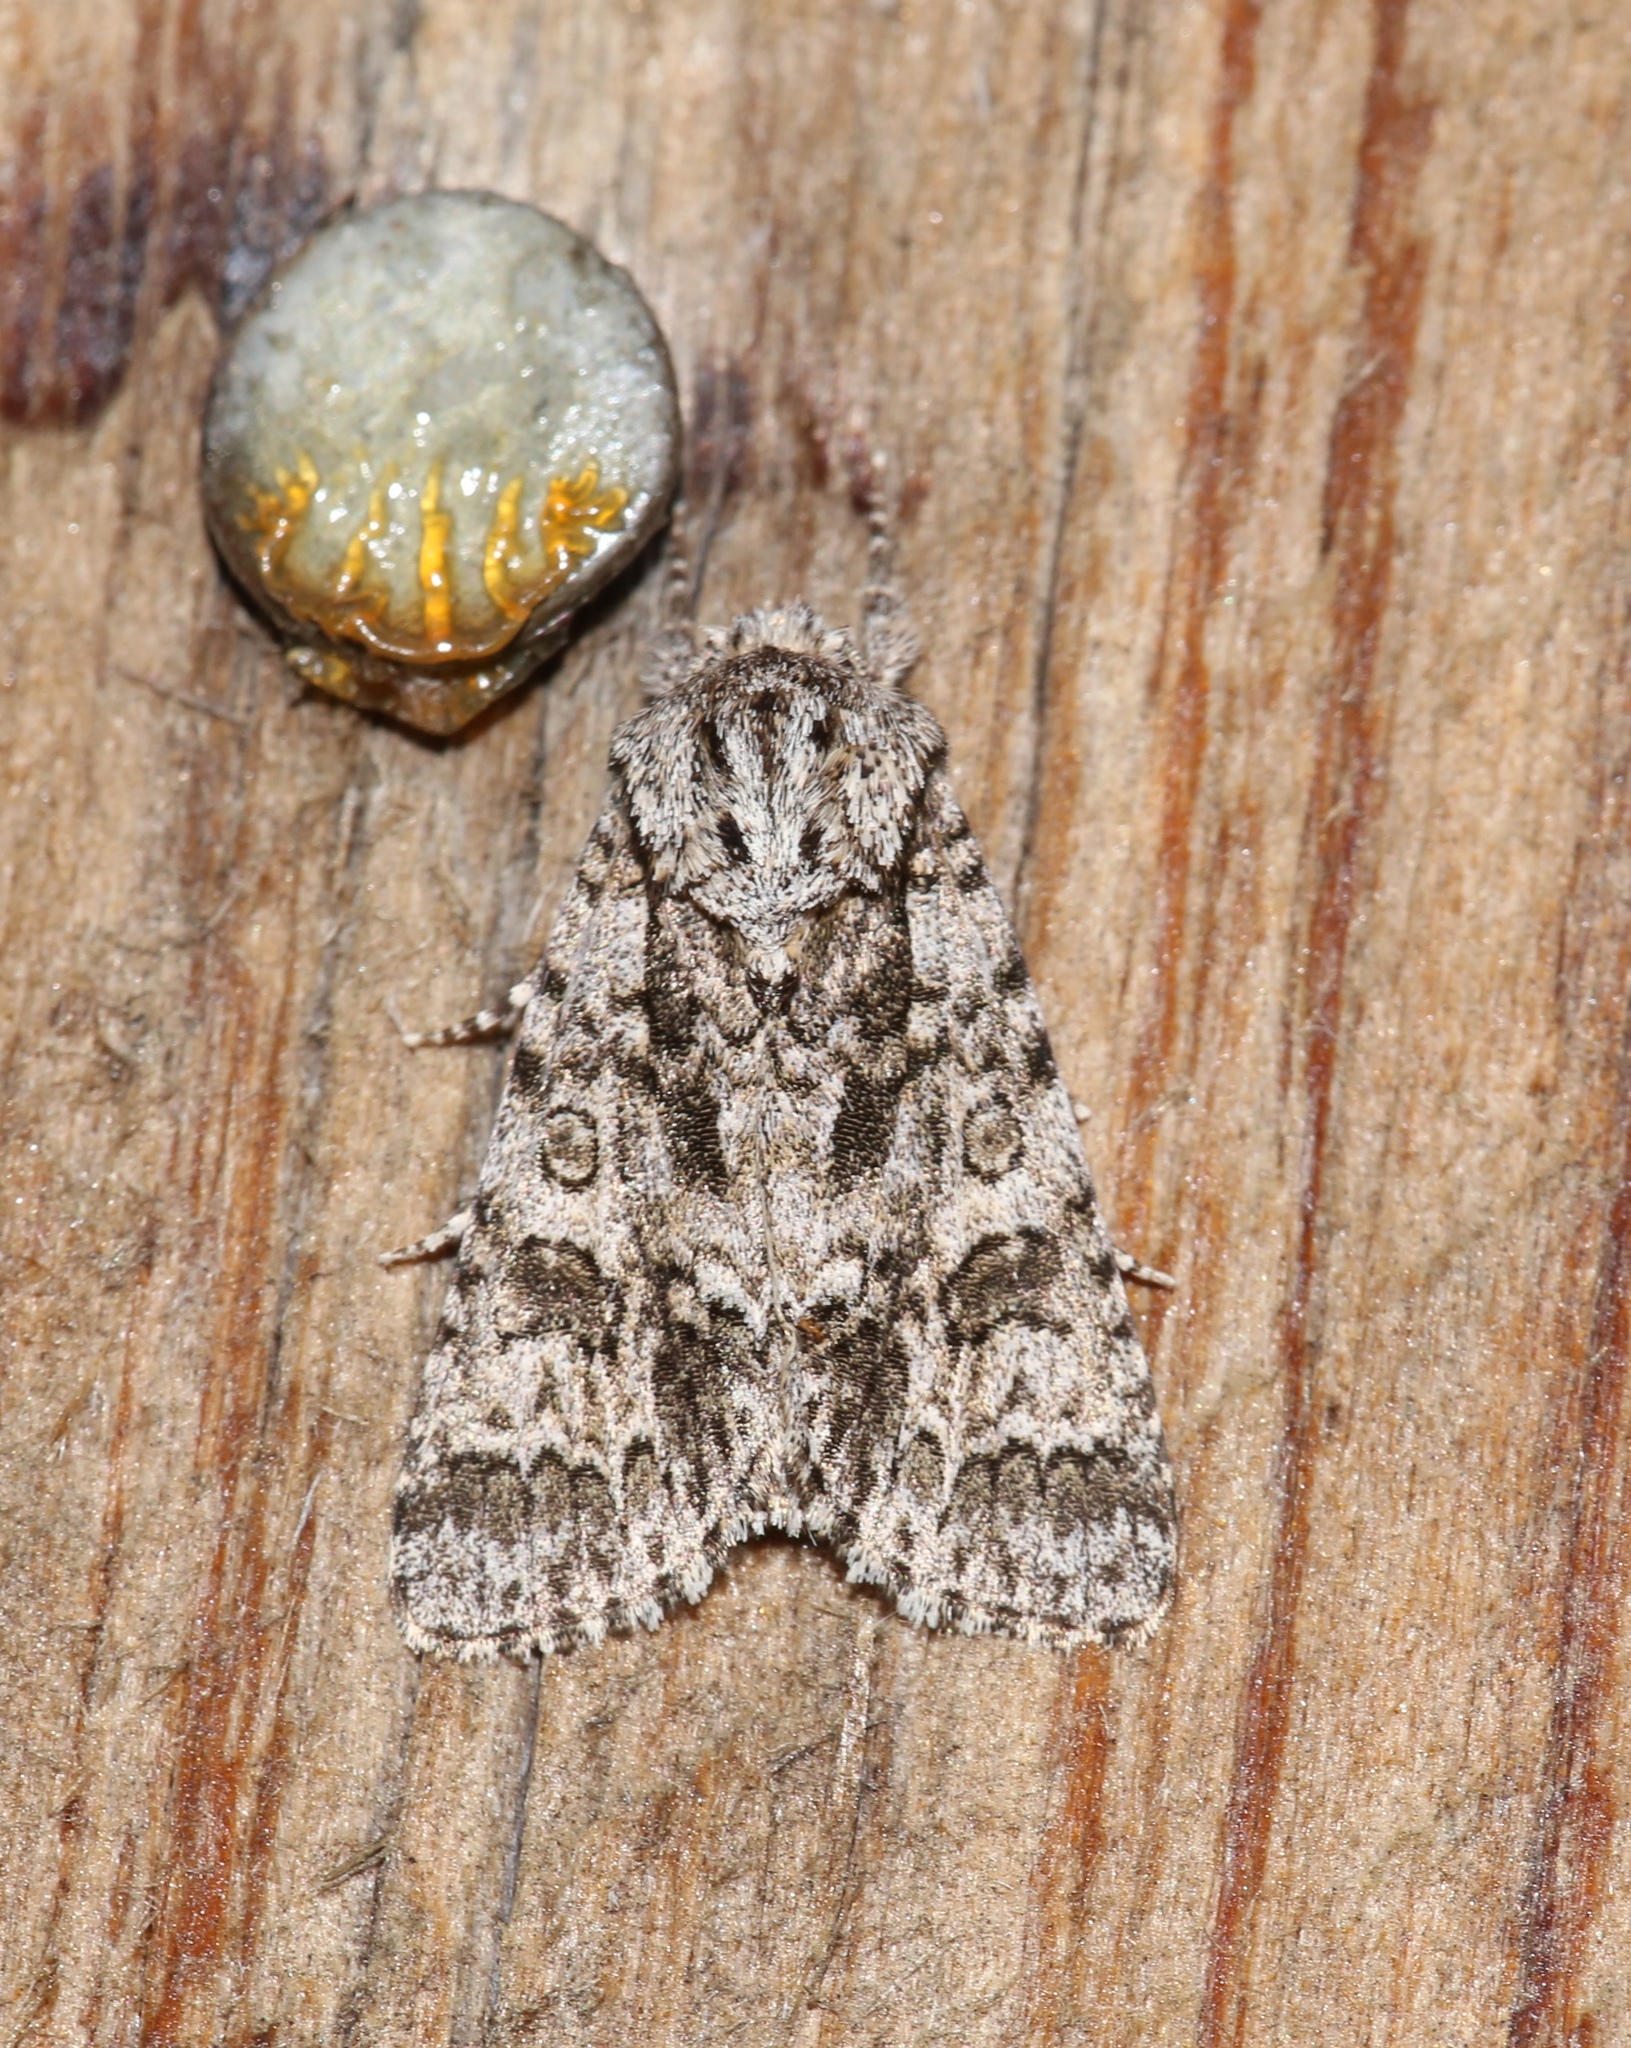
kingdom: Animalia
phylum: Arthropoda
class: Insecta
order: Lepidoptera
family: Noctuidae
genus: Acronicta
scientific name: Acronicta impressa
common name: Impressed dagger
